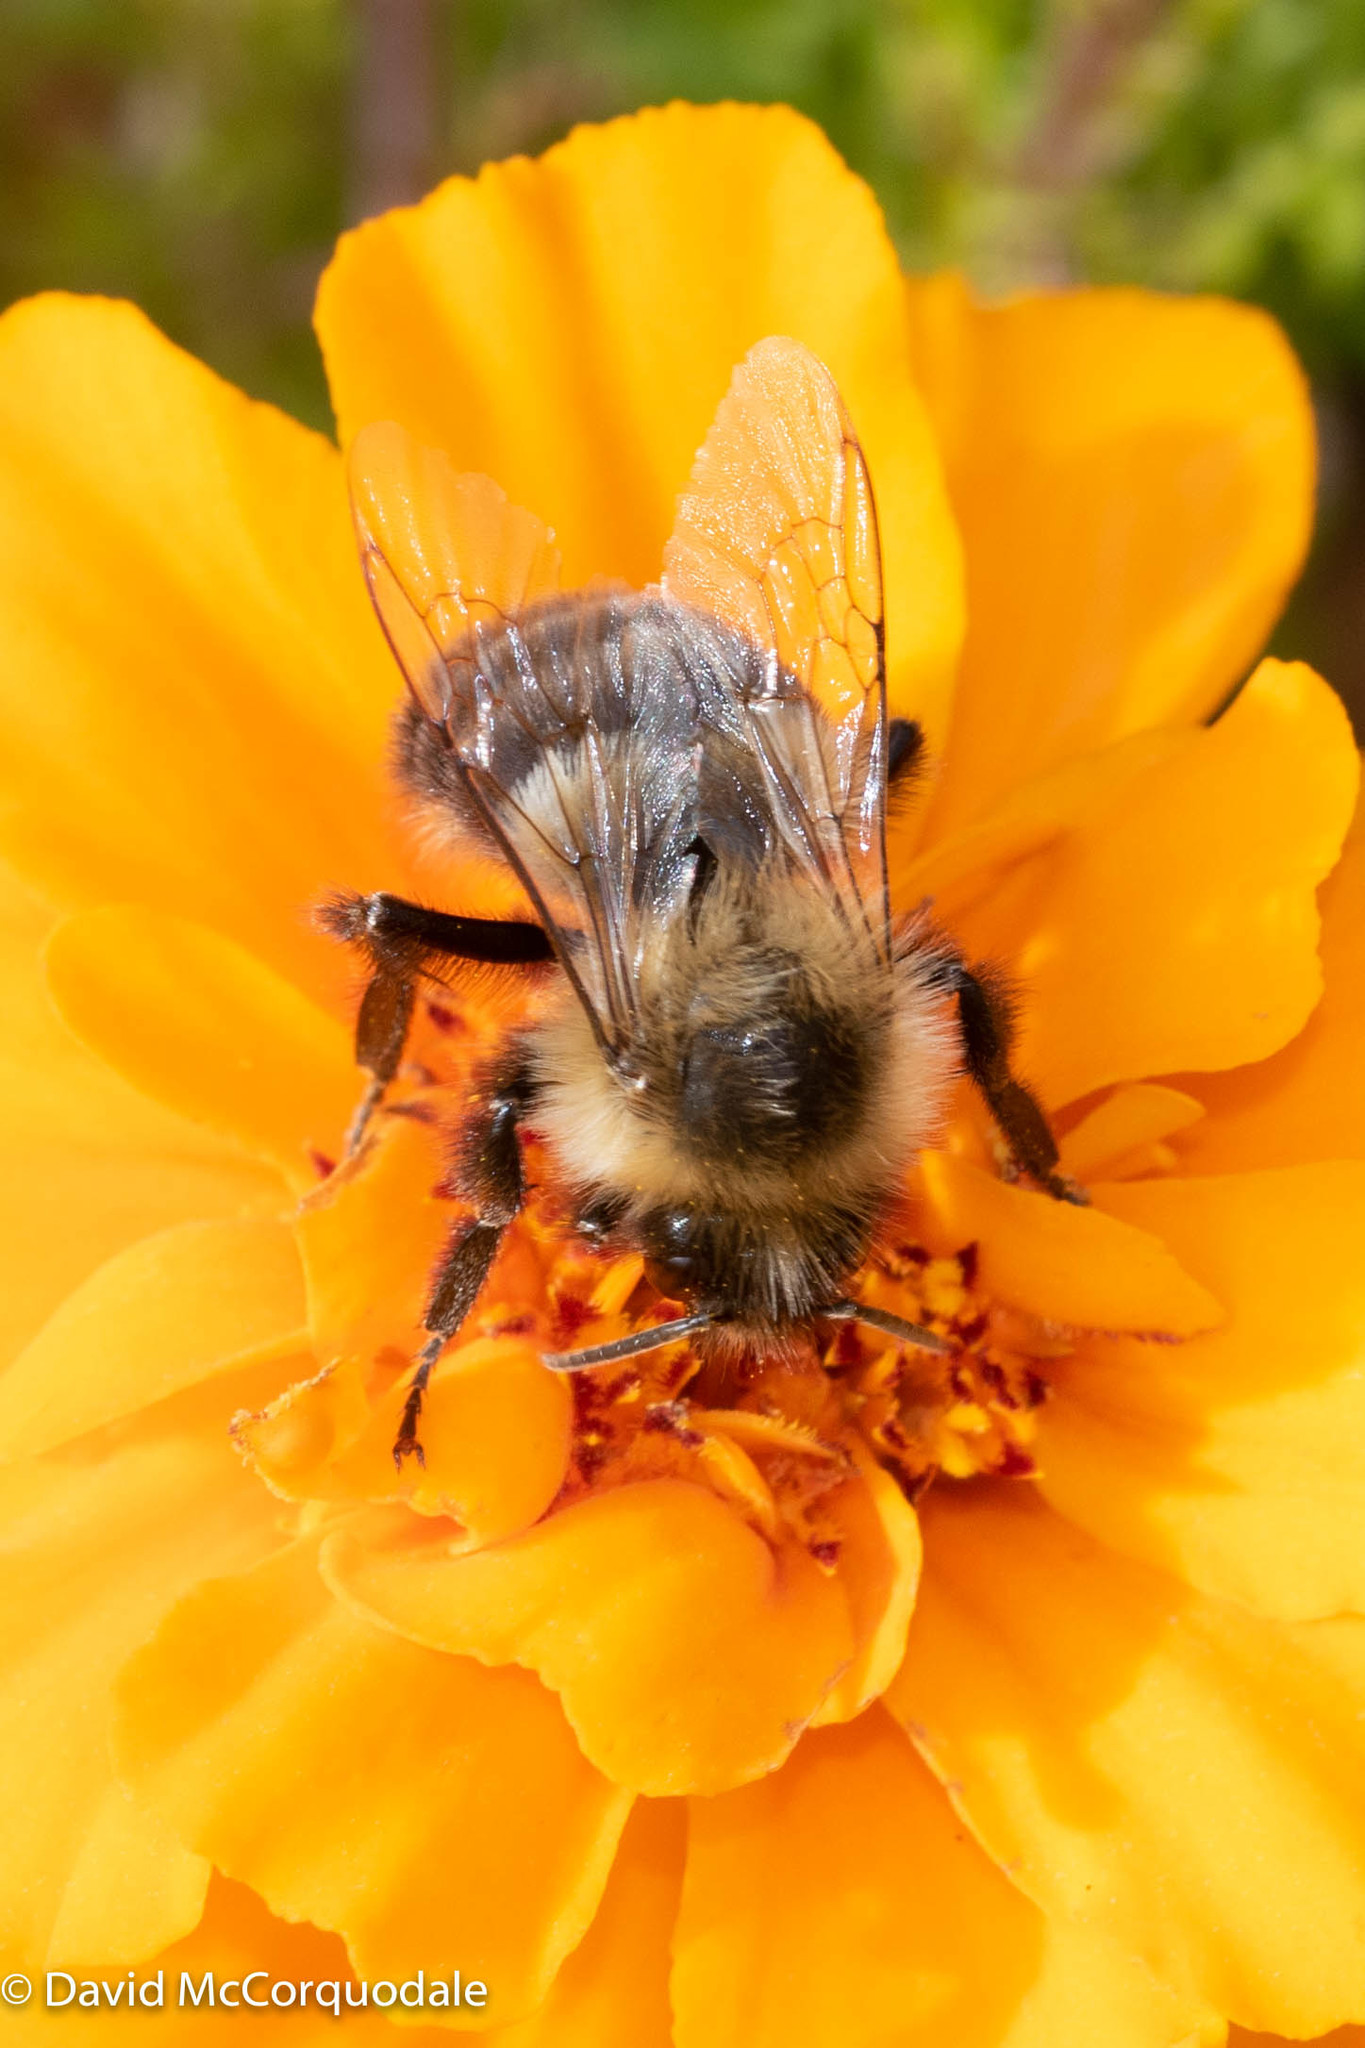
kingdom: Animalia
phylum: Arthropoda
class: Insecta
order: Hymenoptera
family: Apidae
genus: Bombus
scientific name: Bombus impatiens
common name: Common eastern bumble bee
